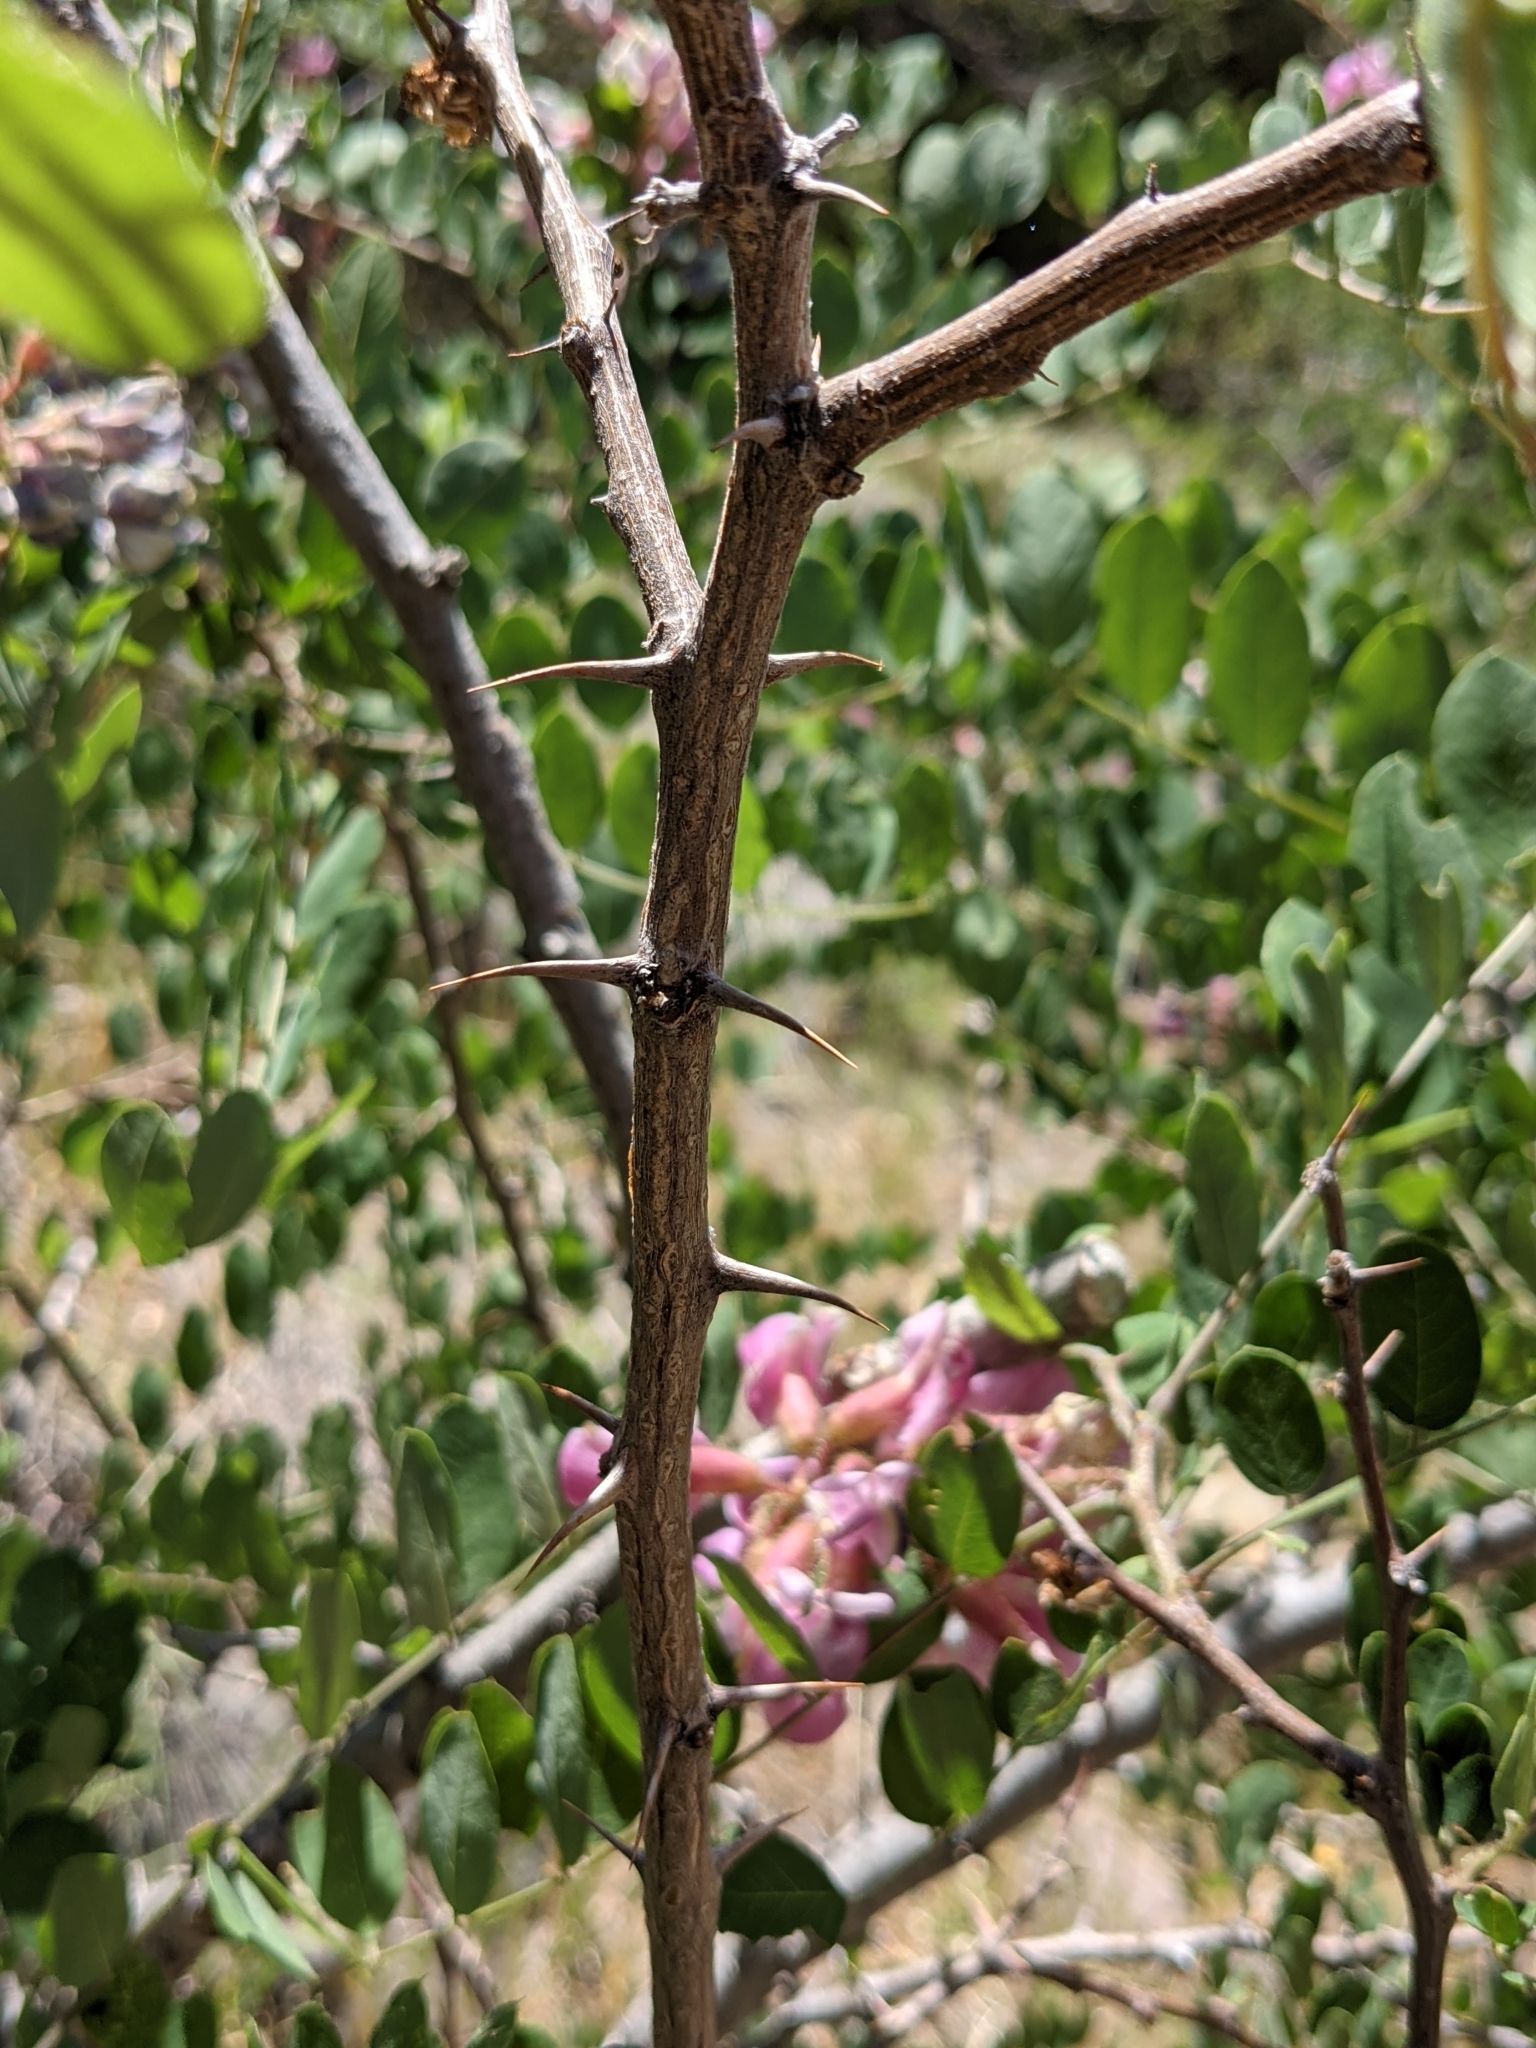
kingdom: Plantae
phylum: Tracheophyta
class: Magnoliopsida
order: Fabales
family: Fabaceae
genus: Robinia
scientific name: Robinia neomexicana
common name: New mexico locust
